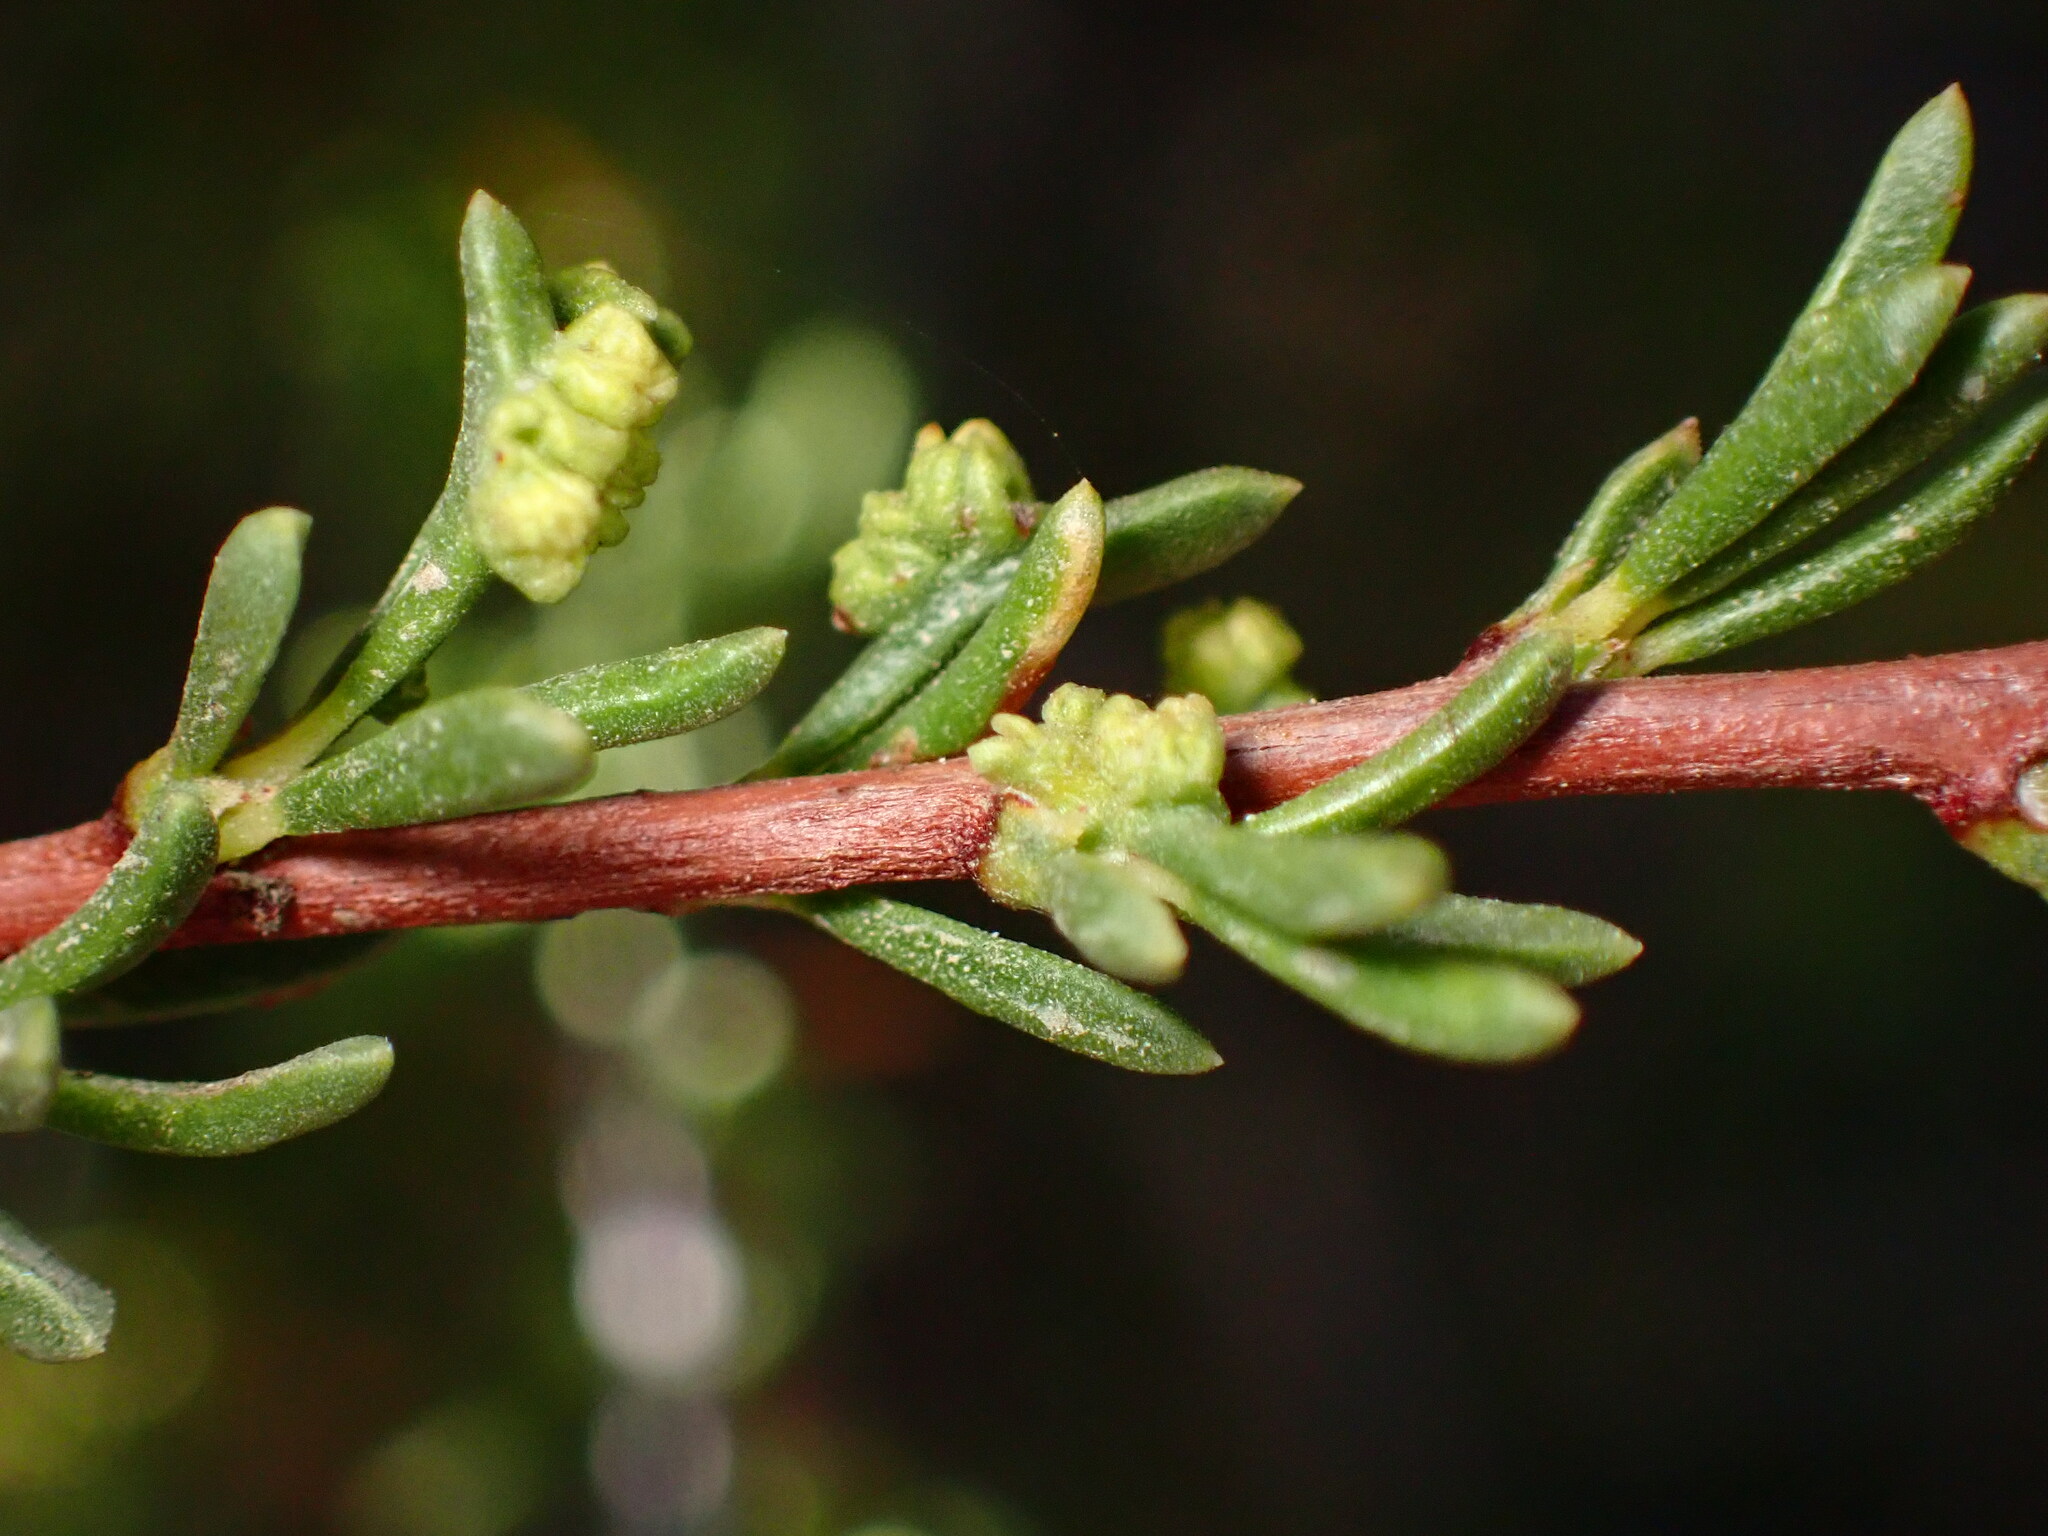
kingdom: Animalia
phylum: Arthropoda
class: Arachnida
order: Trombidiformes
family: Eriophyidae
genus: Eriophyes
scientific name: Eriophyes
